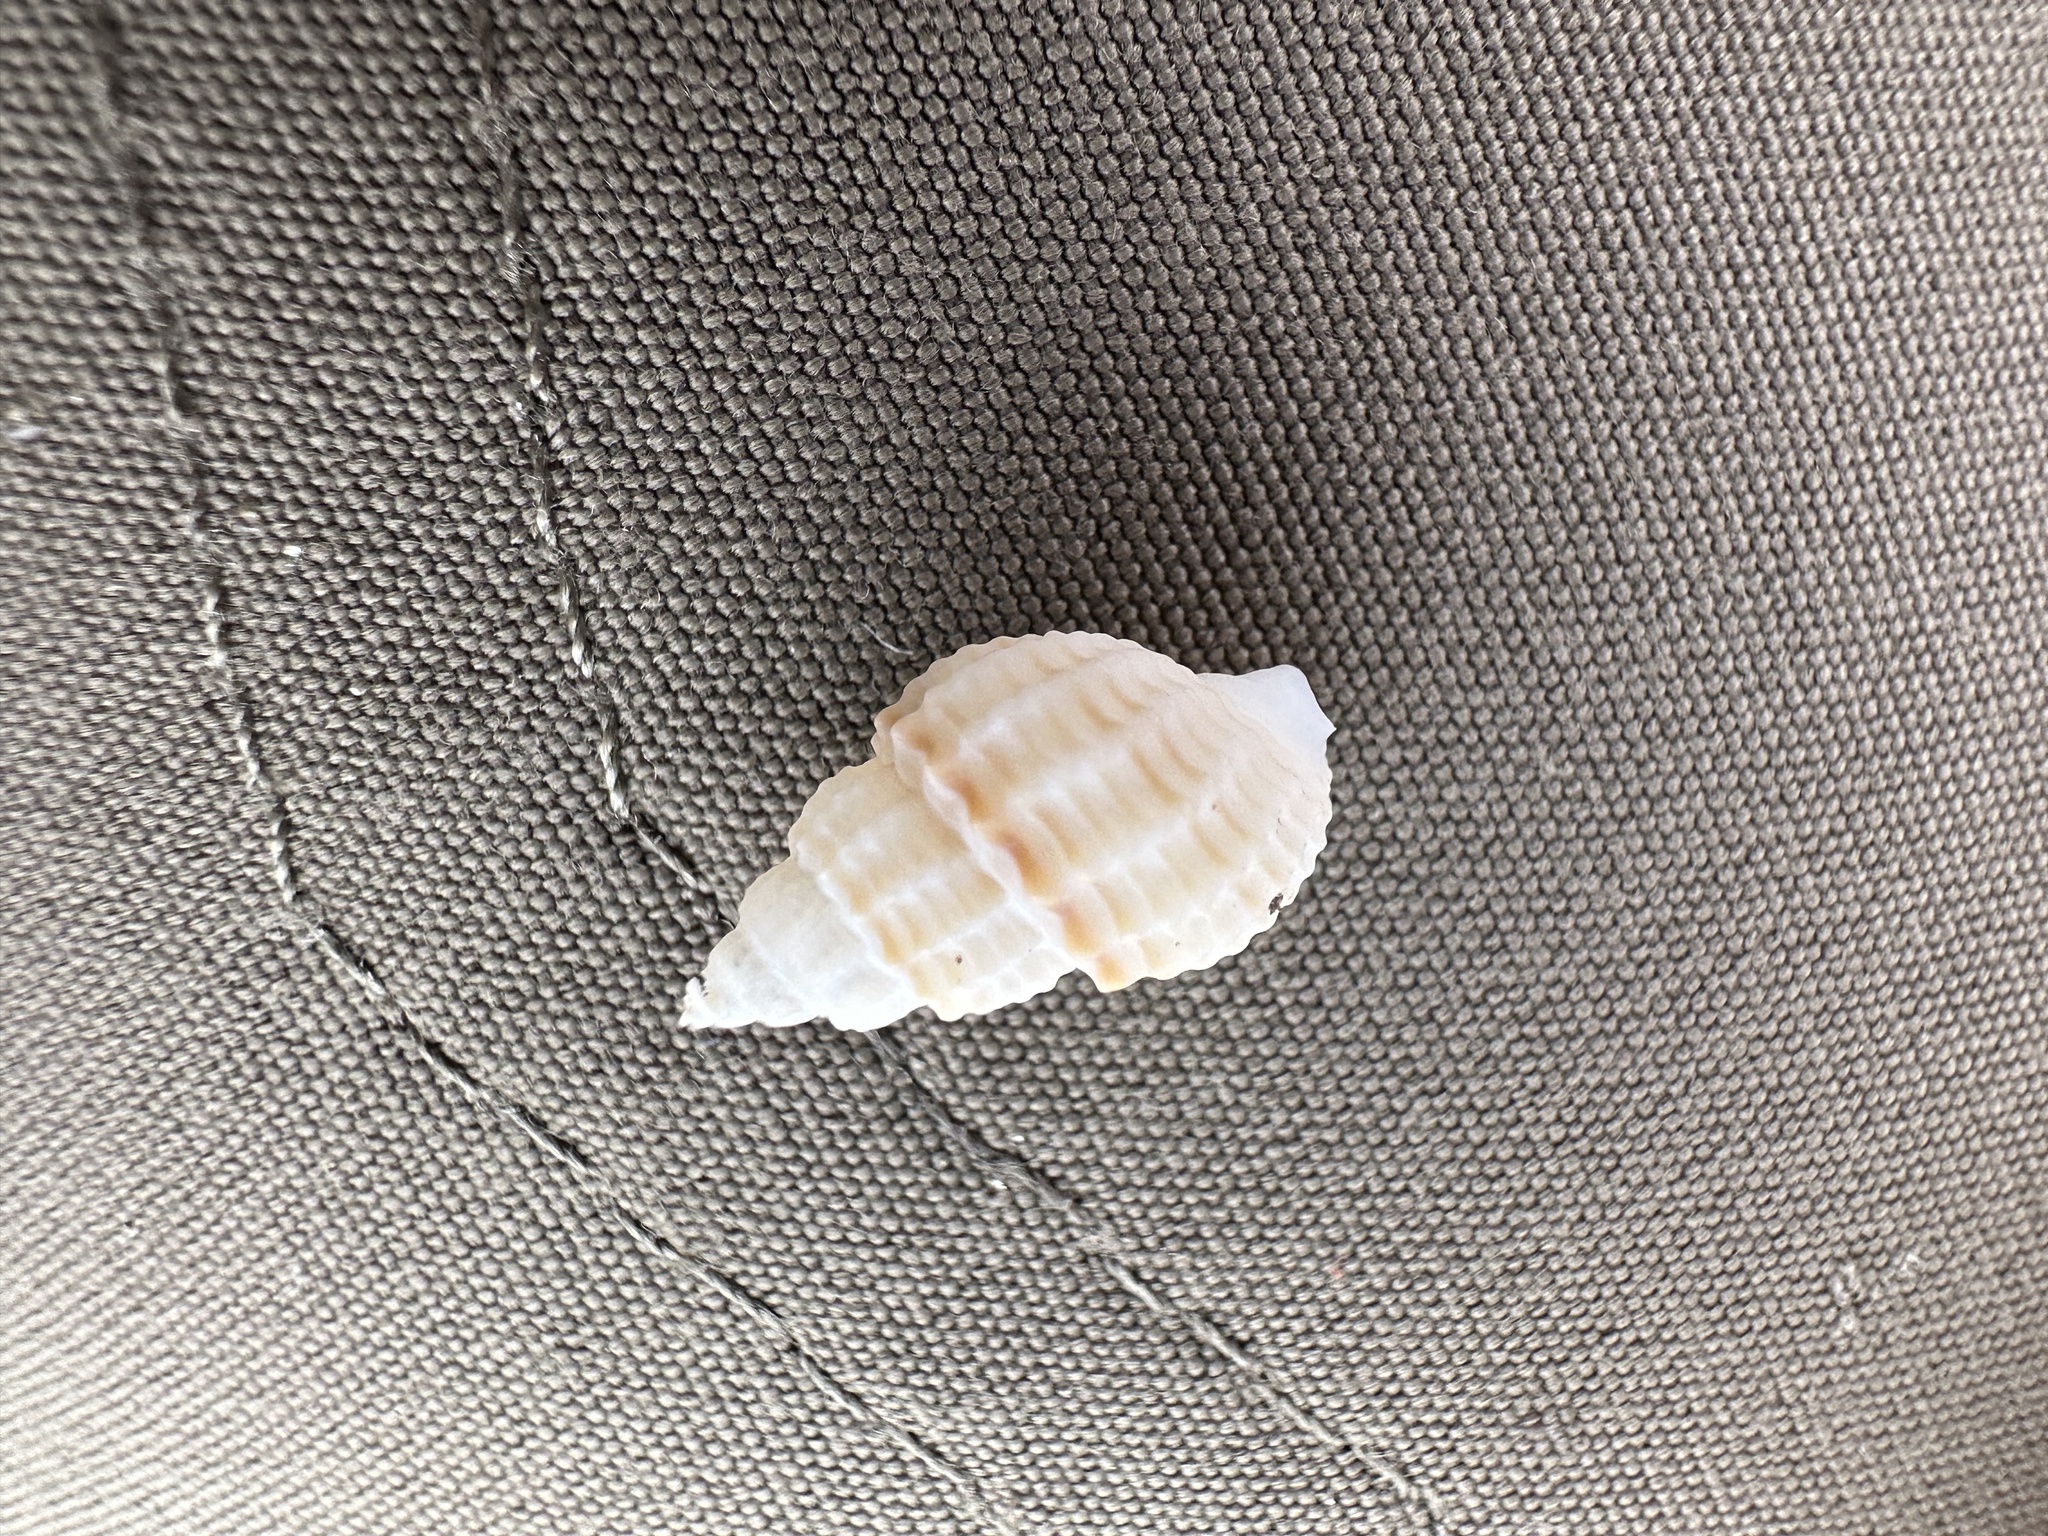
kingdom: Animalia
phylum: Mollusca
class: Gastropoda
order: Neogastropoda
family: Nassariidae
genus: Ilyanassa
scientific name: Ilyanassa trivittata
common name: Three-line mudsnail
